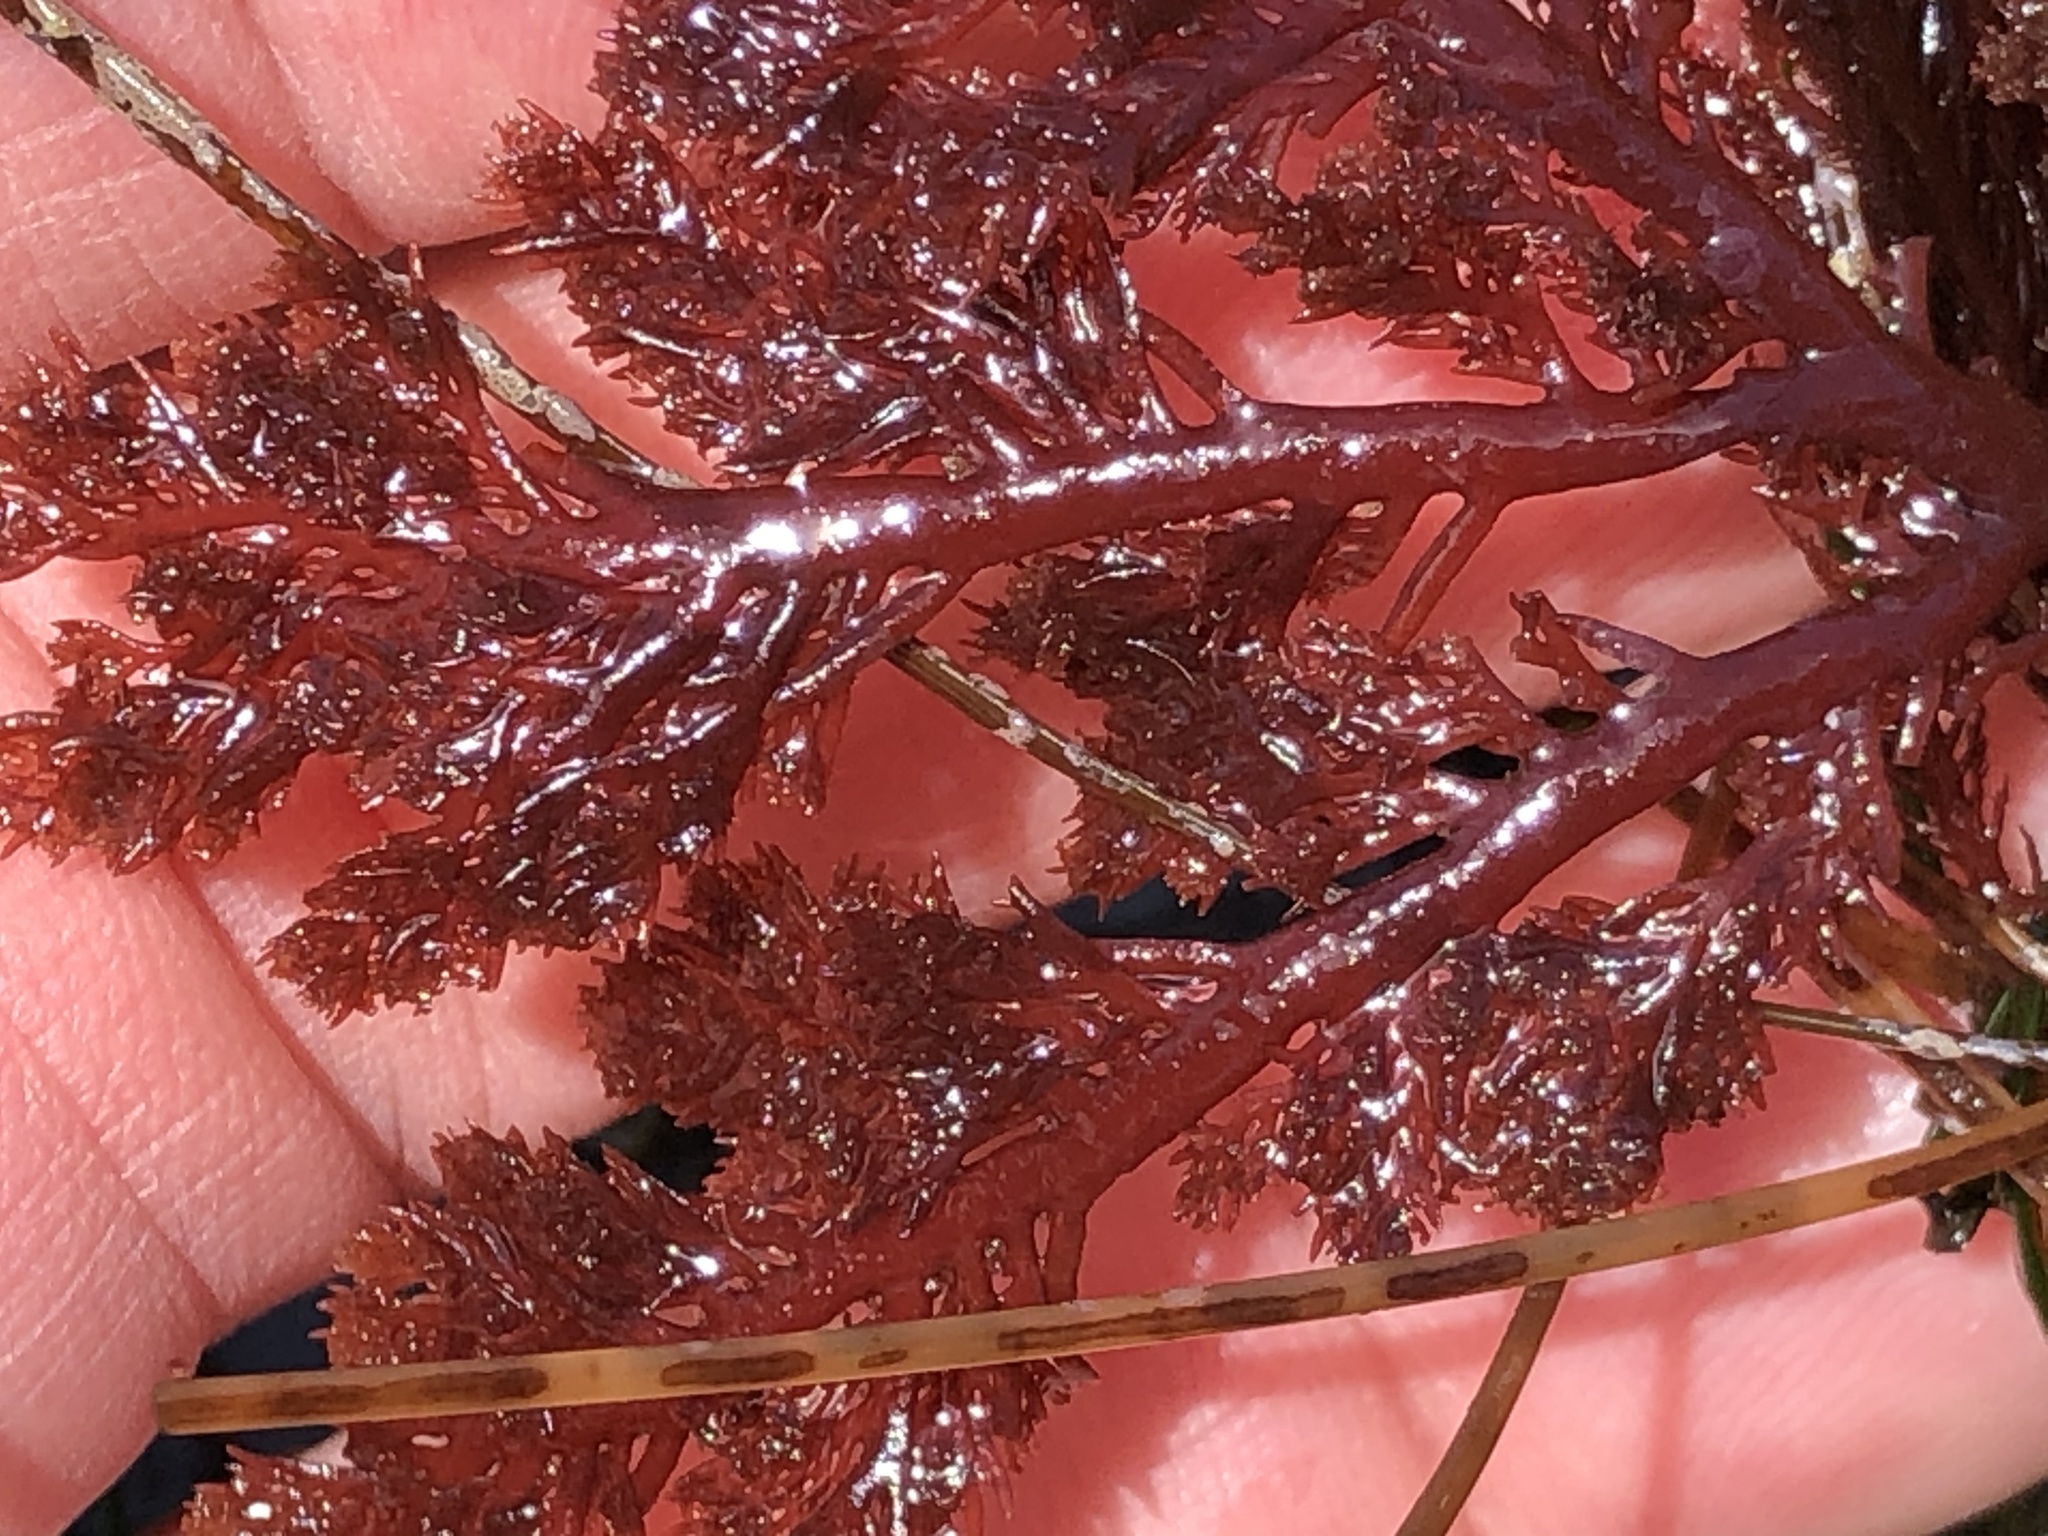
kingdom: Plantae
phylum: Rhodophyta
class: Florideophyceae
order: Plocamiales
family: Plocamiaceae
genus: Plocamium
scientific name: Plocamium cartilagineum
